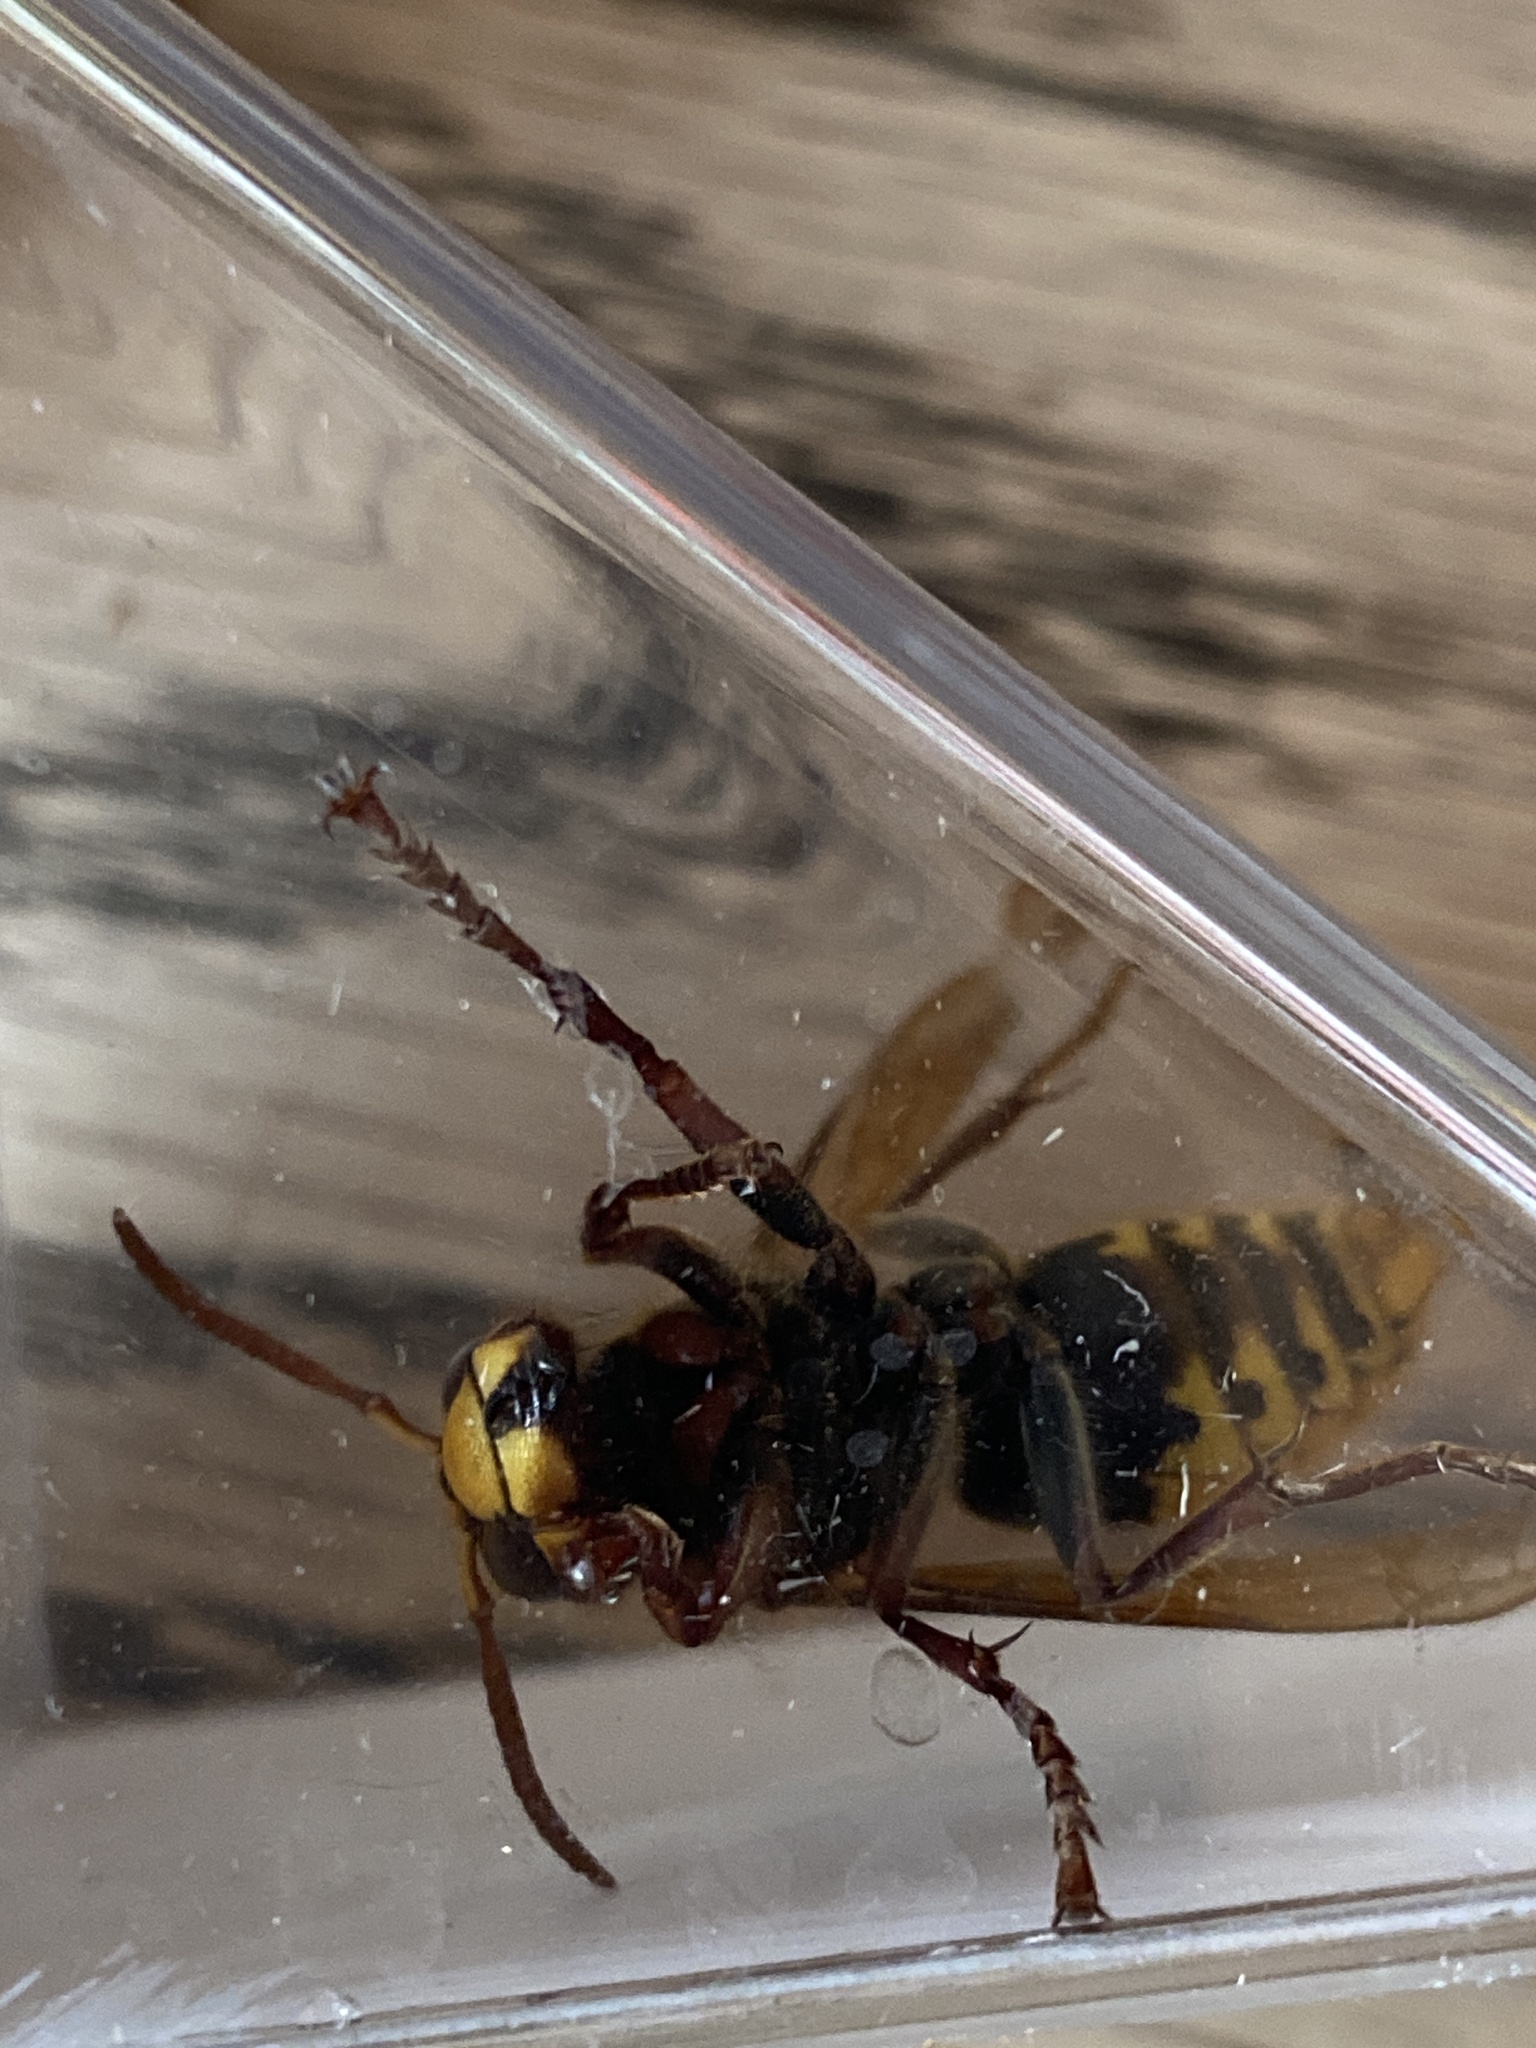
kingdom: Animalia
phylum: Arthropoda
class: Insecta
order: Hymenoptera
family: Vespidae
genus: Vespa
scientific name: Vespa crabro
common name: Hornet
